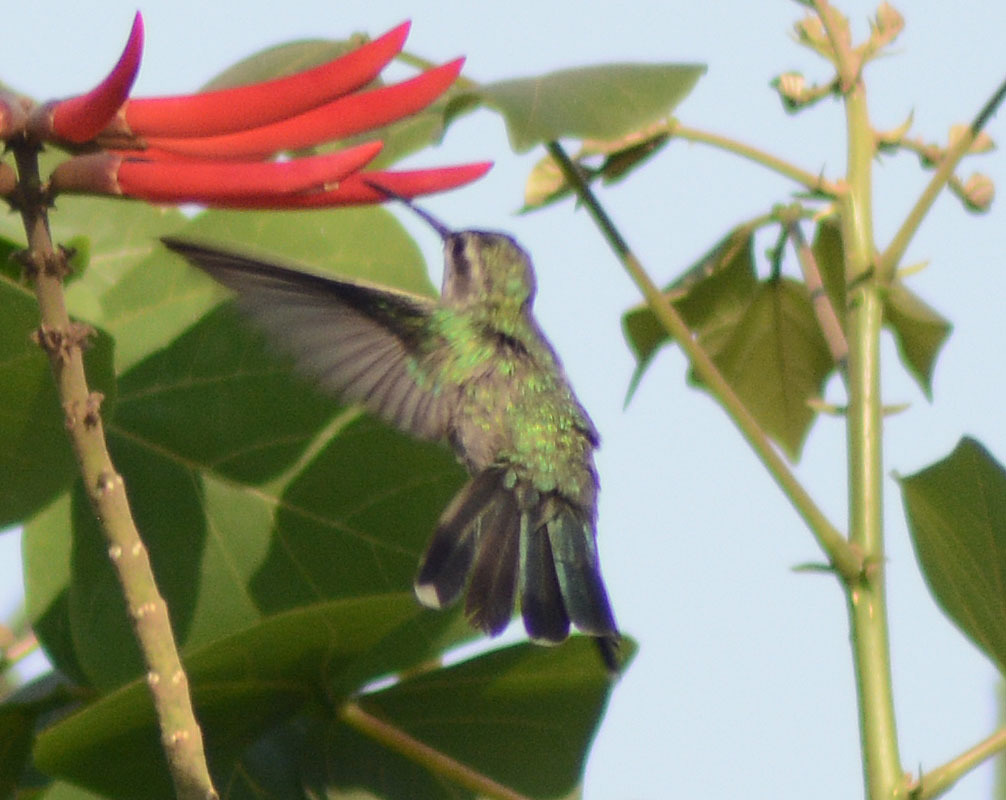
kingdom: Animalia
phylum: Chordata
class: Aves
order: Apodiformes
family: Trochilidae
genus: Cynanthus
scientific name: Cynanthus latirostris
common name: Broad-billed hummingbird
